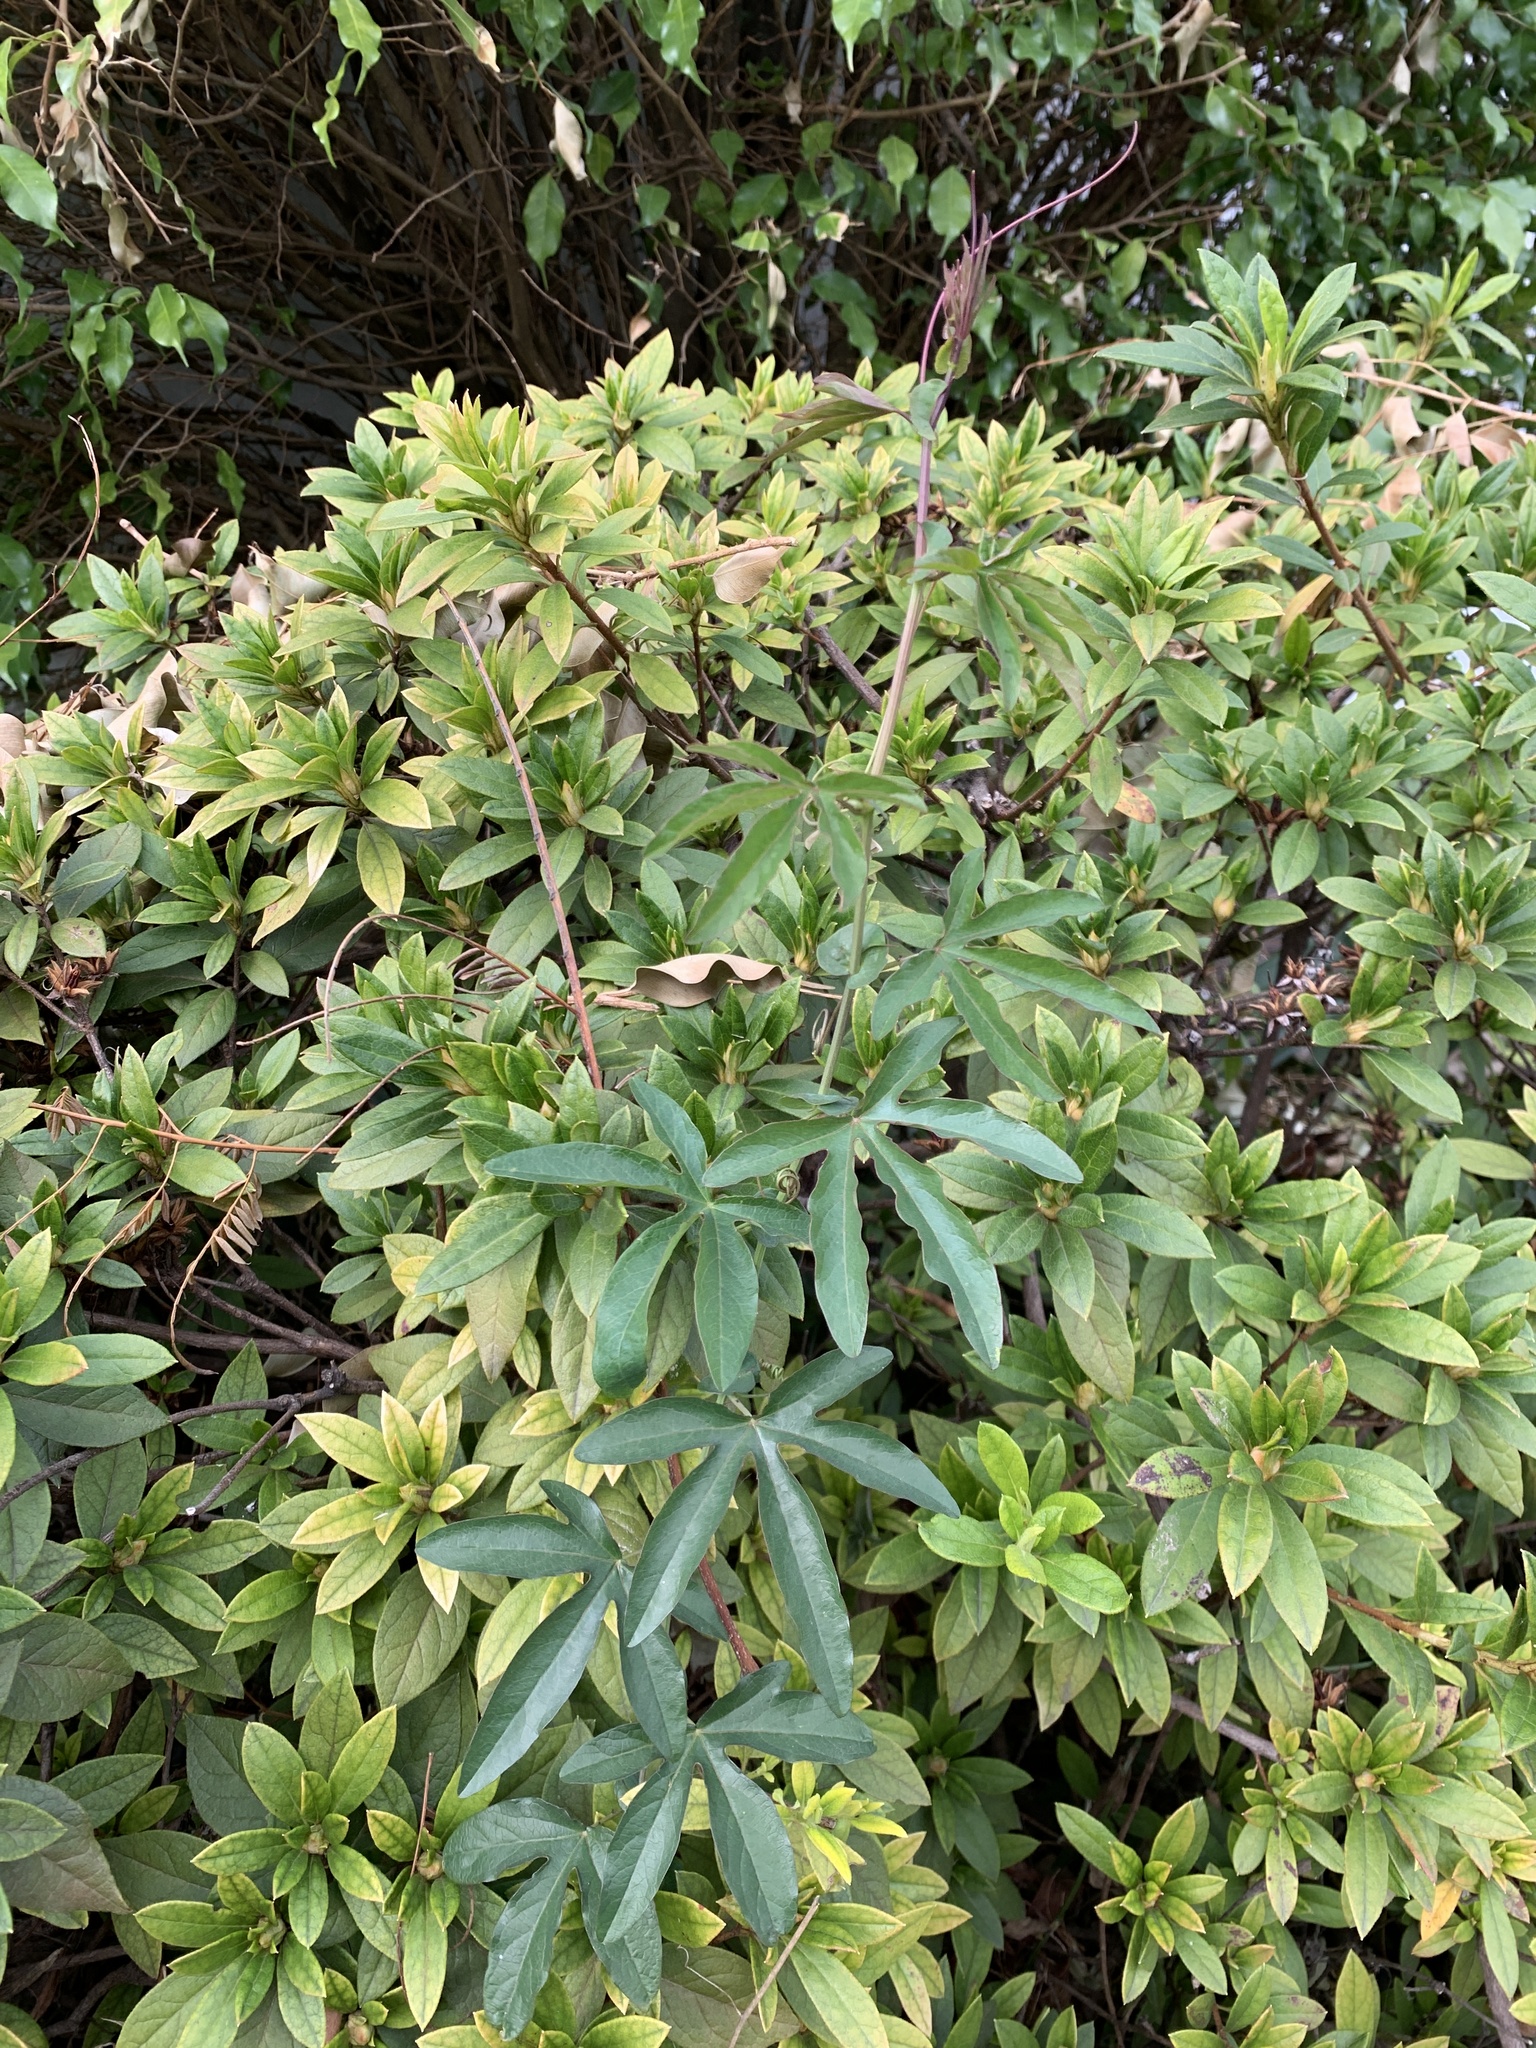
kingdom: Plantae
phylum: Tracheophyta
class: Magnoliopsida
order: Malpighiales
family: Passifloraceae
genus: Passiflora
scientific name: Passiflora caerulea
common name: Blue passionflower
